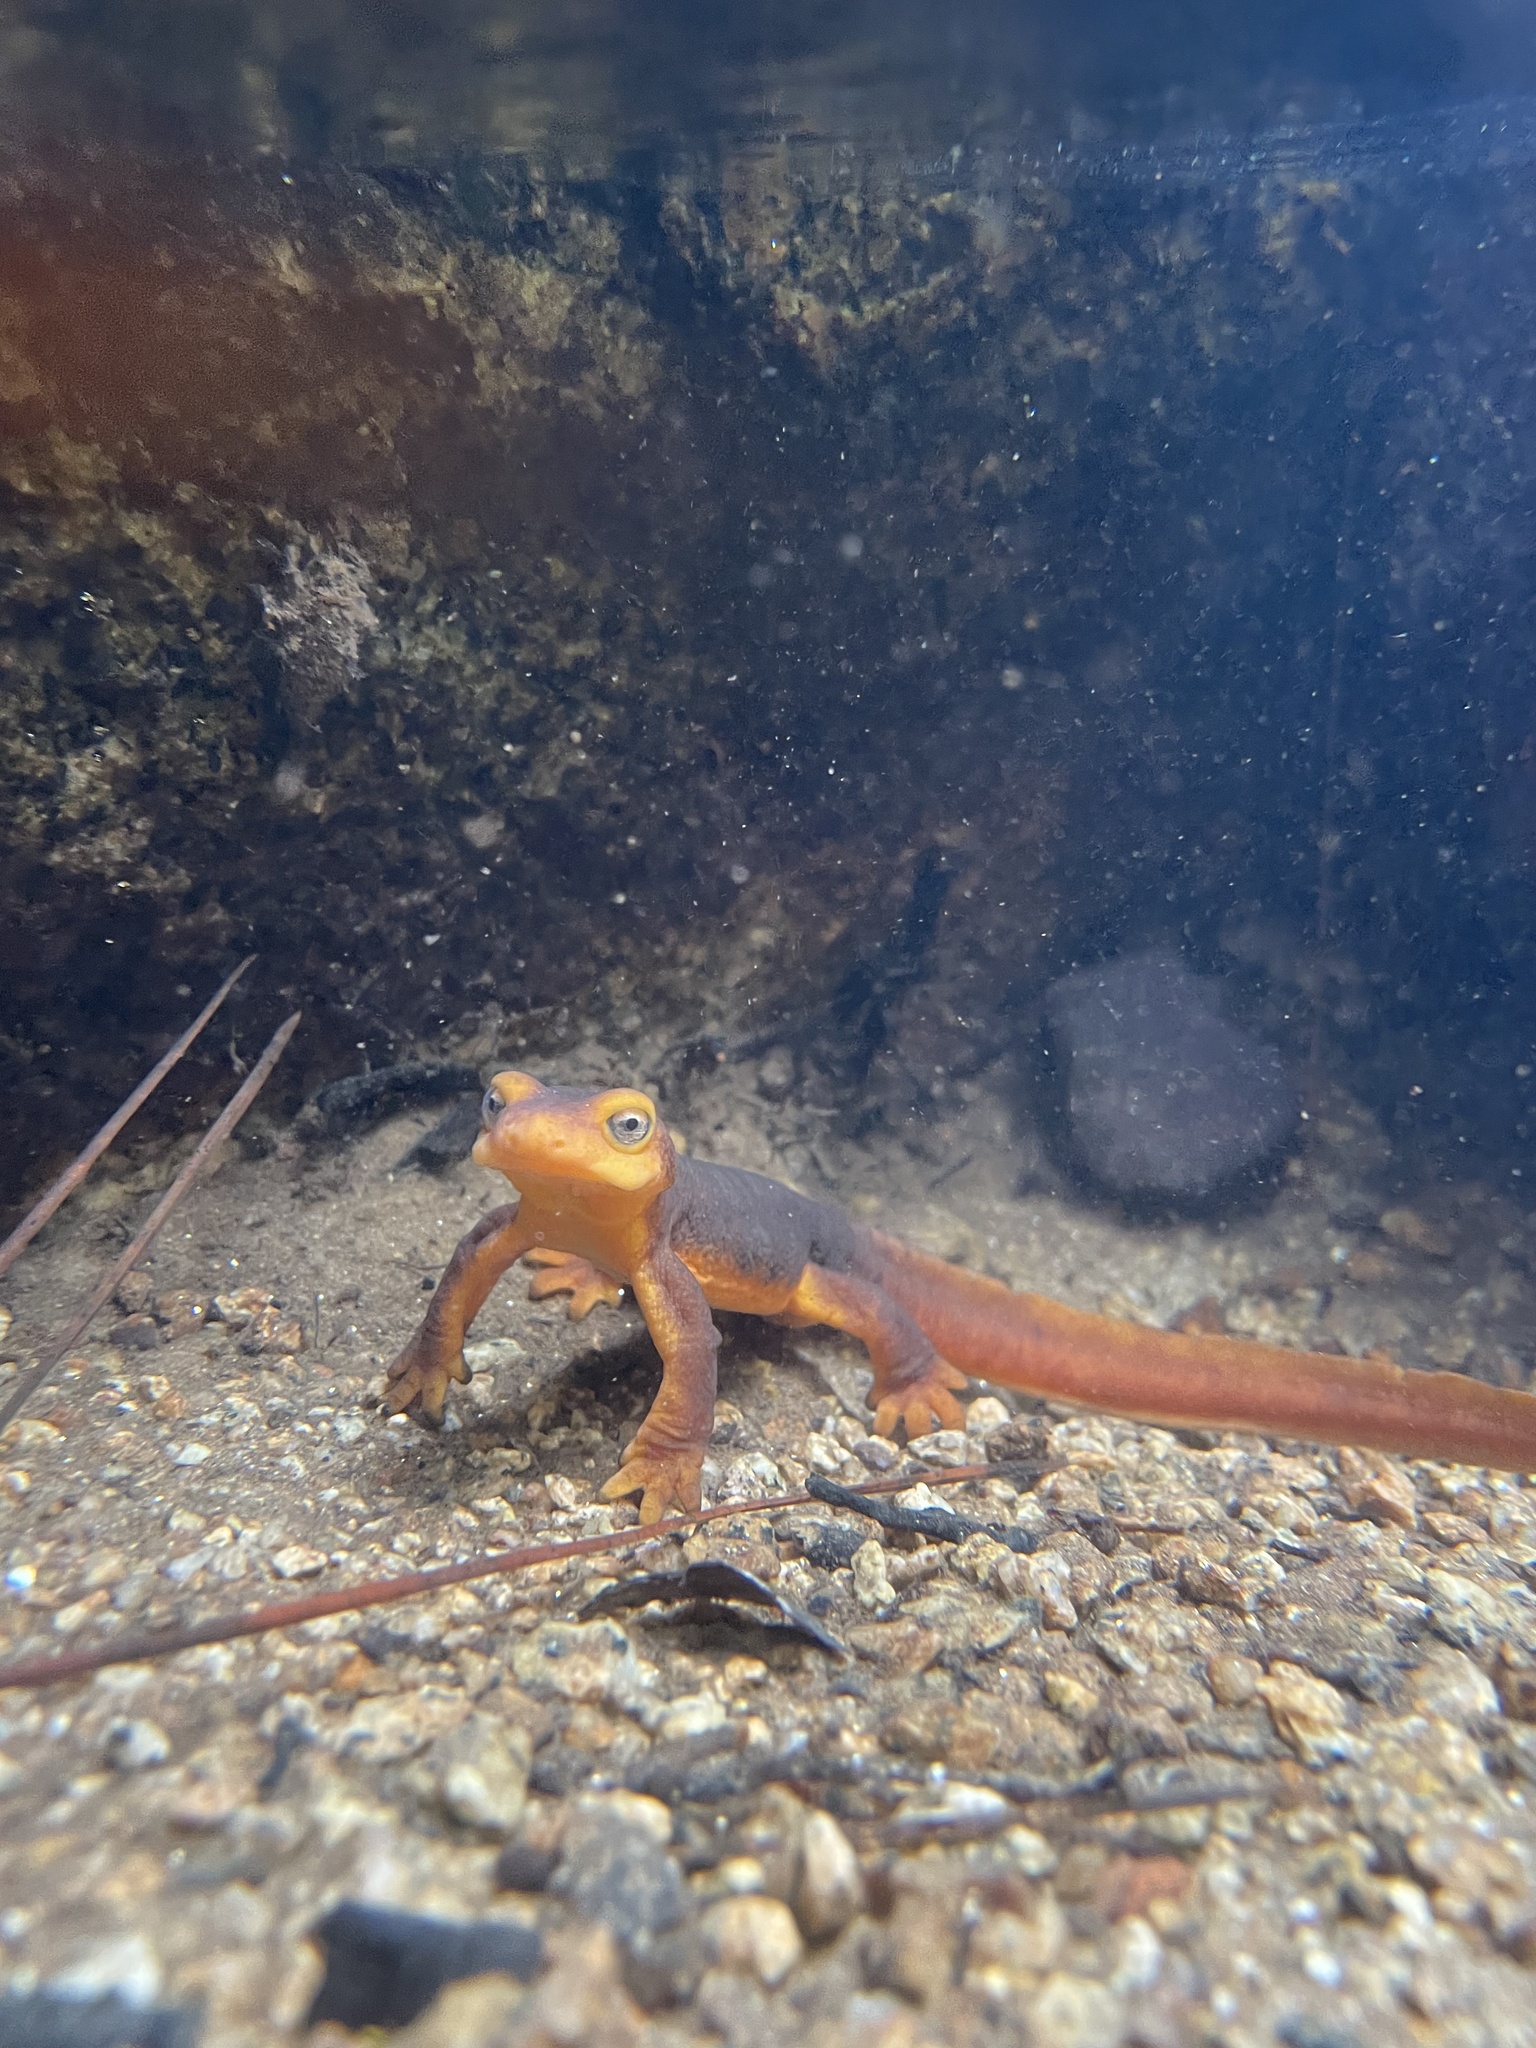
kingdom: Animalia
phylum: Chordata
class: Amphibia
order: Caudata
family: Salamandridae
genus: Taricha
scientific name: Taricha sierrae
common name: Sierra newt
